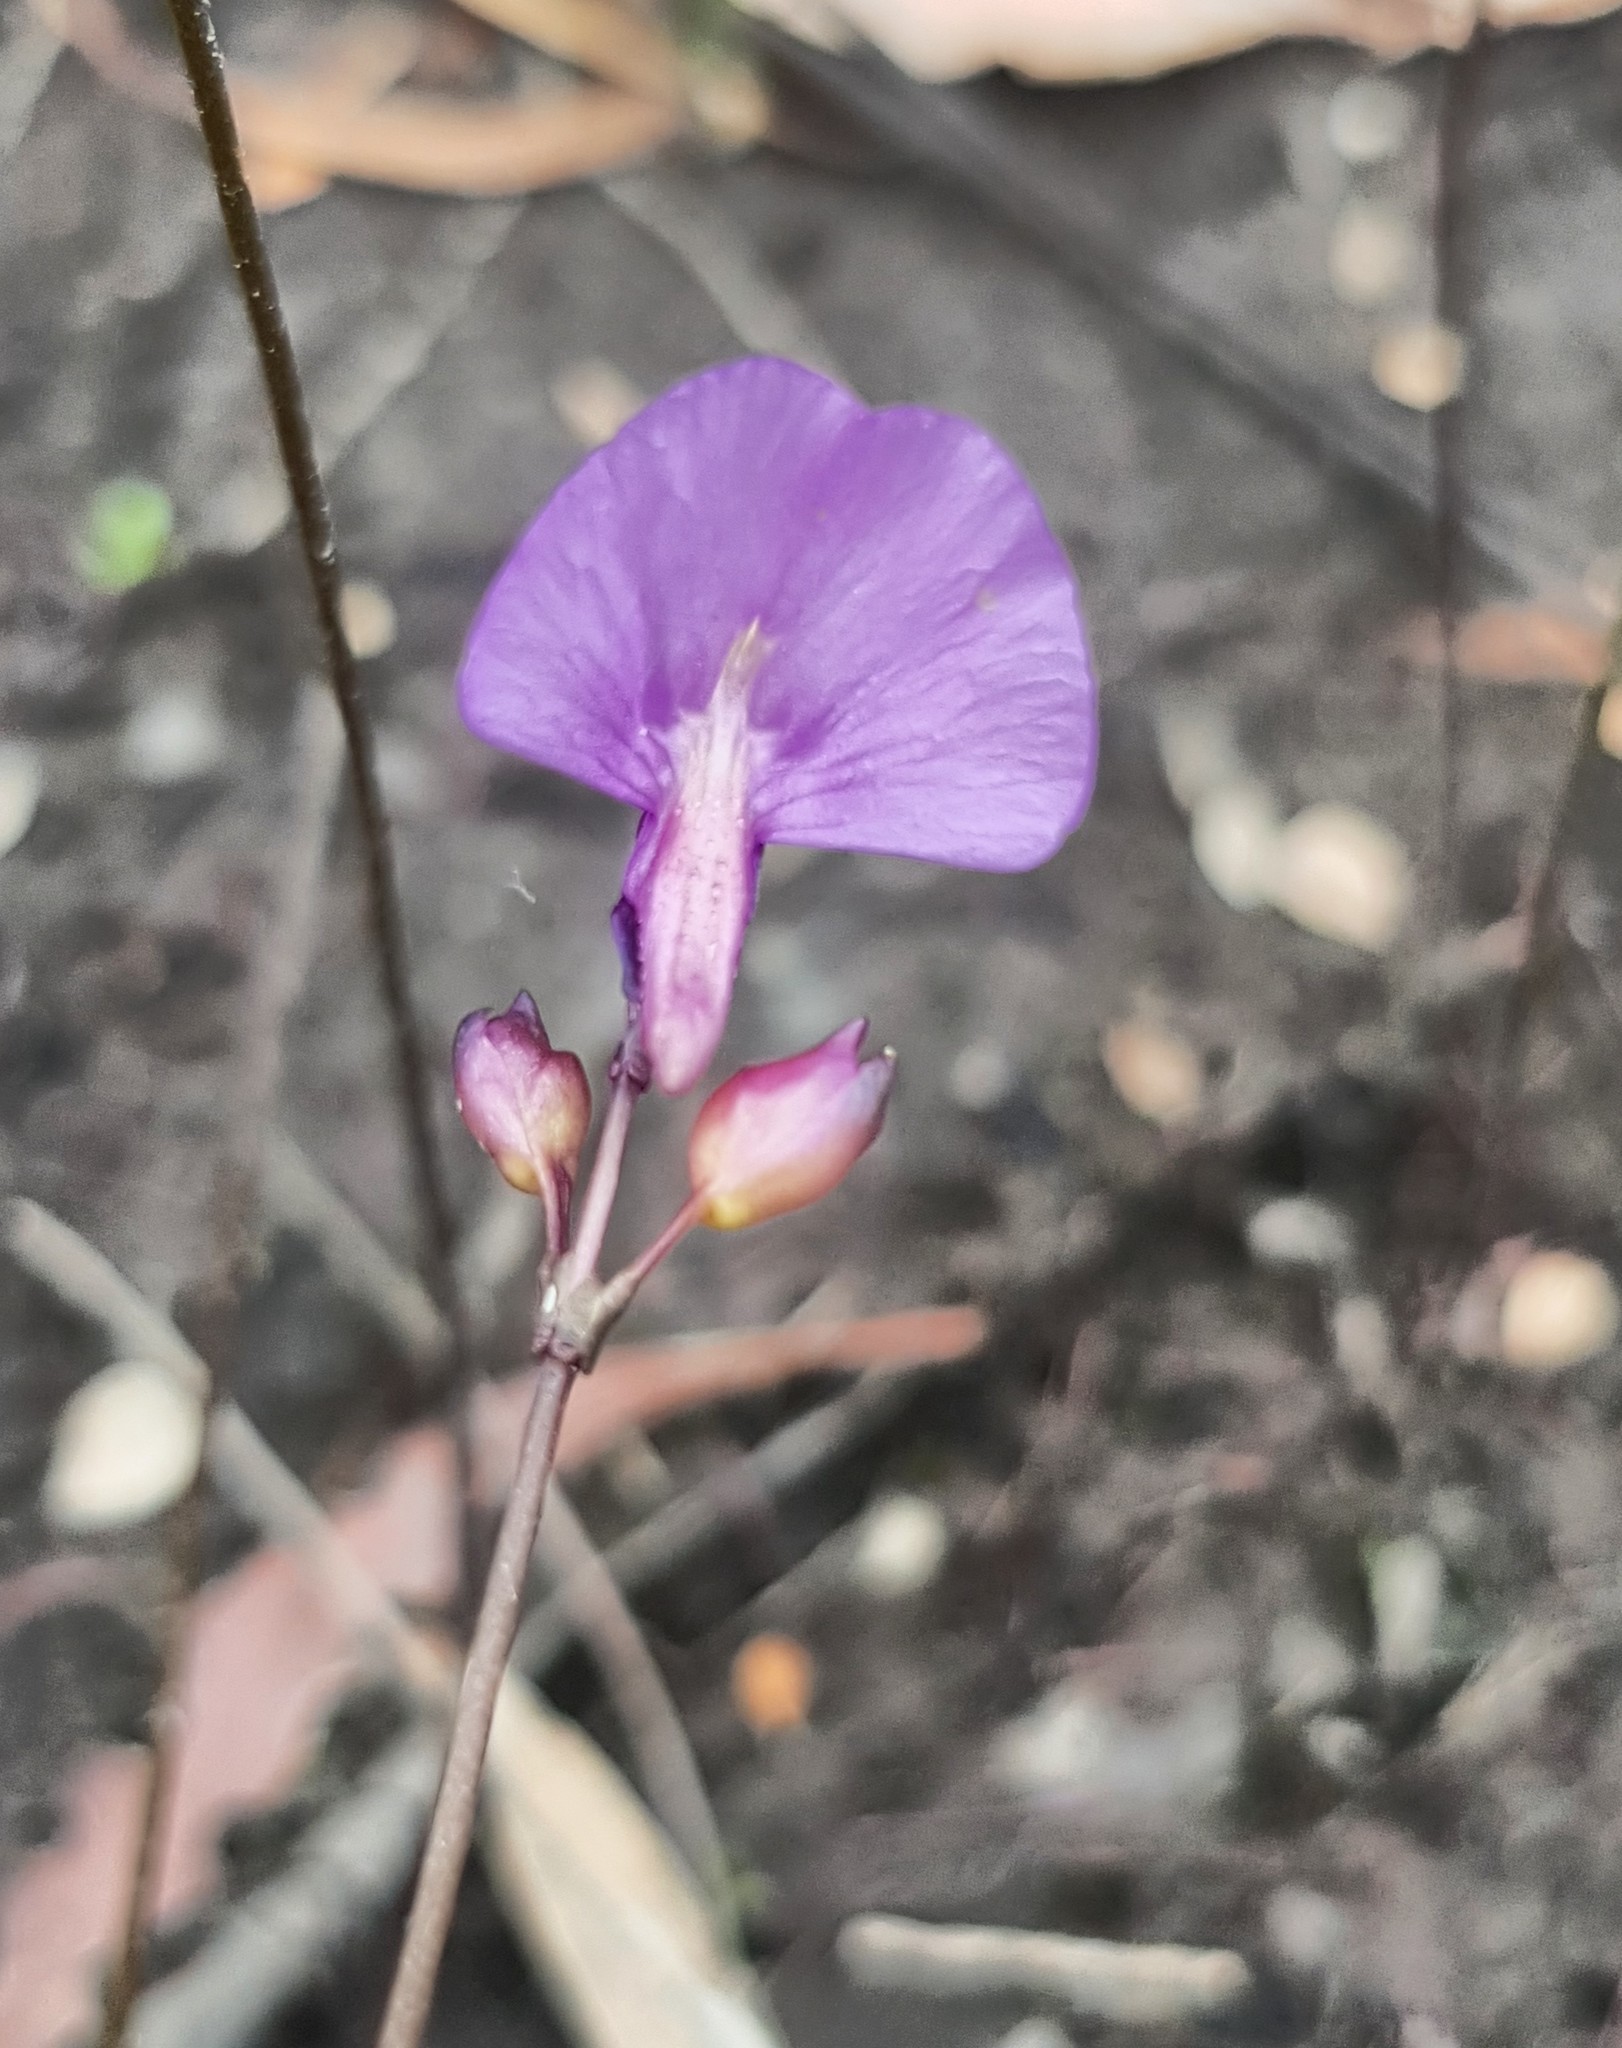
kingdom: Plantae
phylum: Tracheophyta
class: Magnoliopsida
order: Lamiales
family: Lentibulariaceae
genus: Utricularia
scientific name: Utricularia dichotoma
